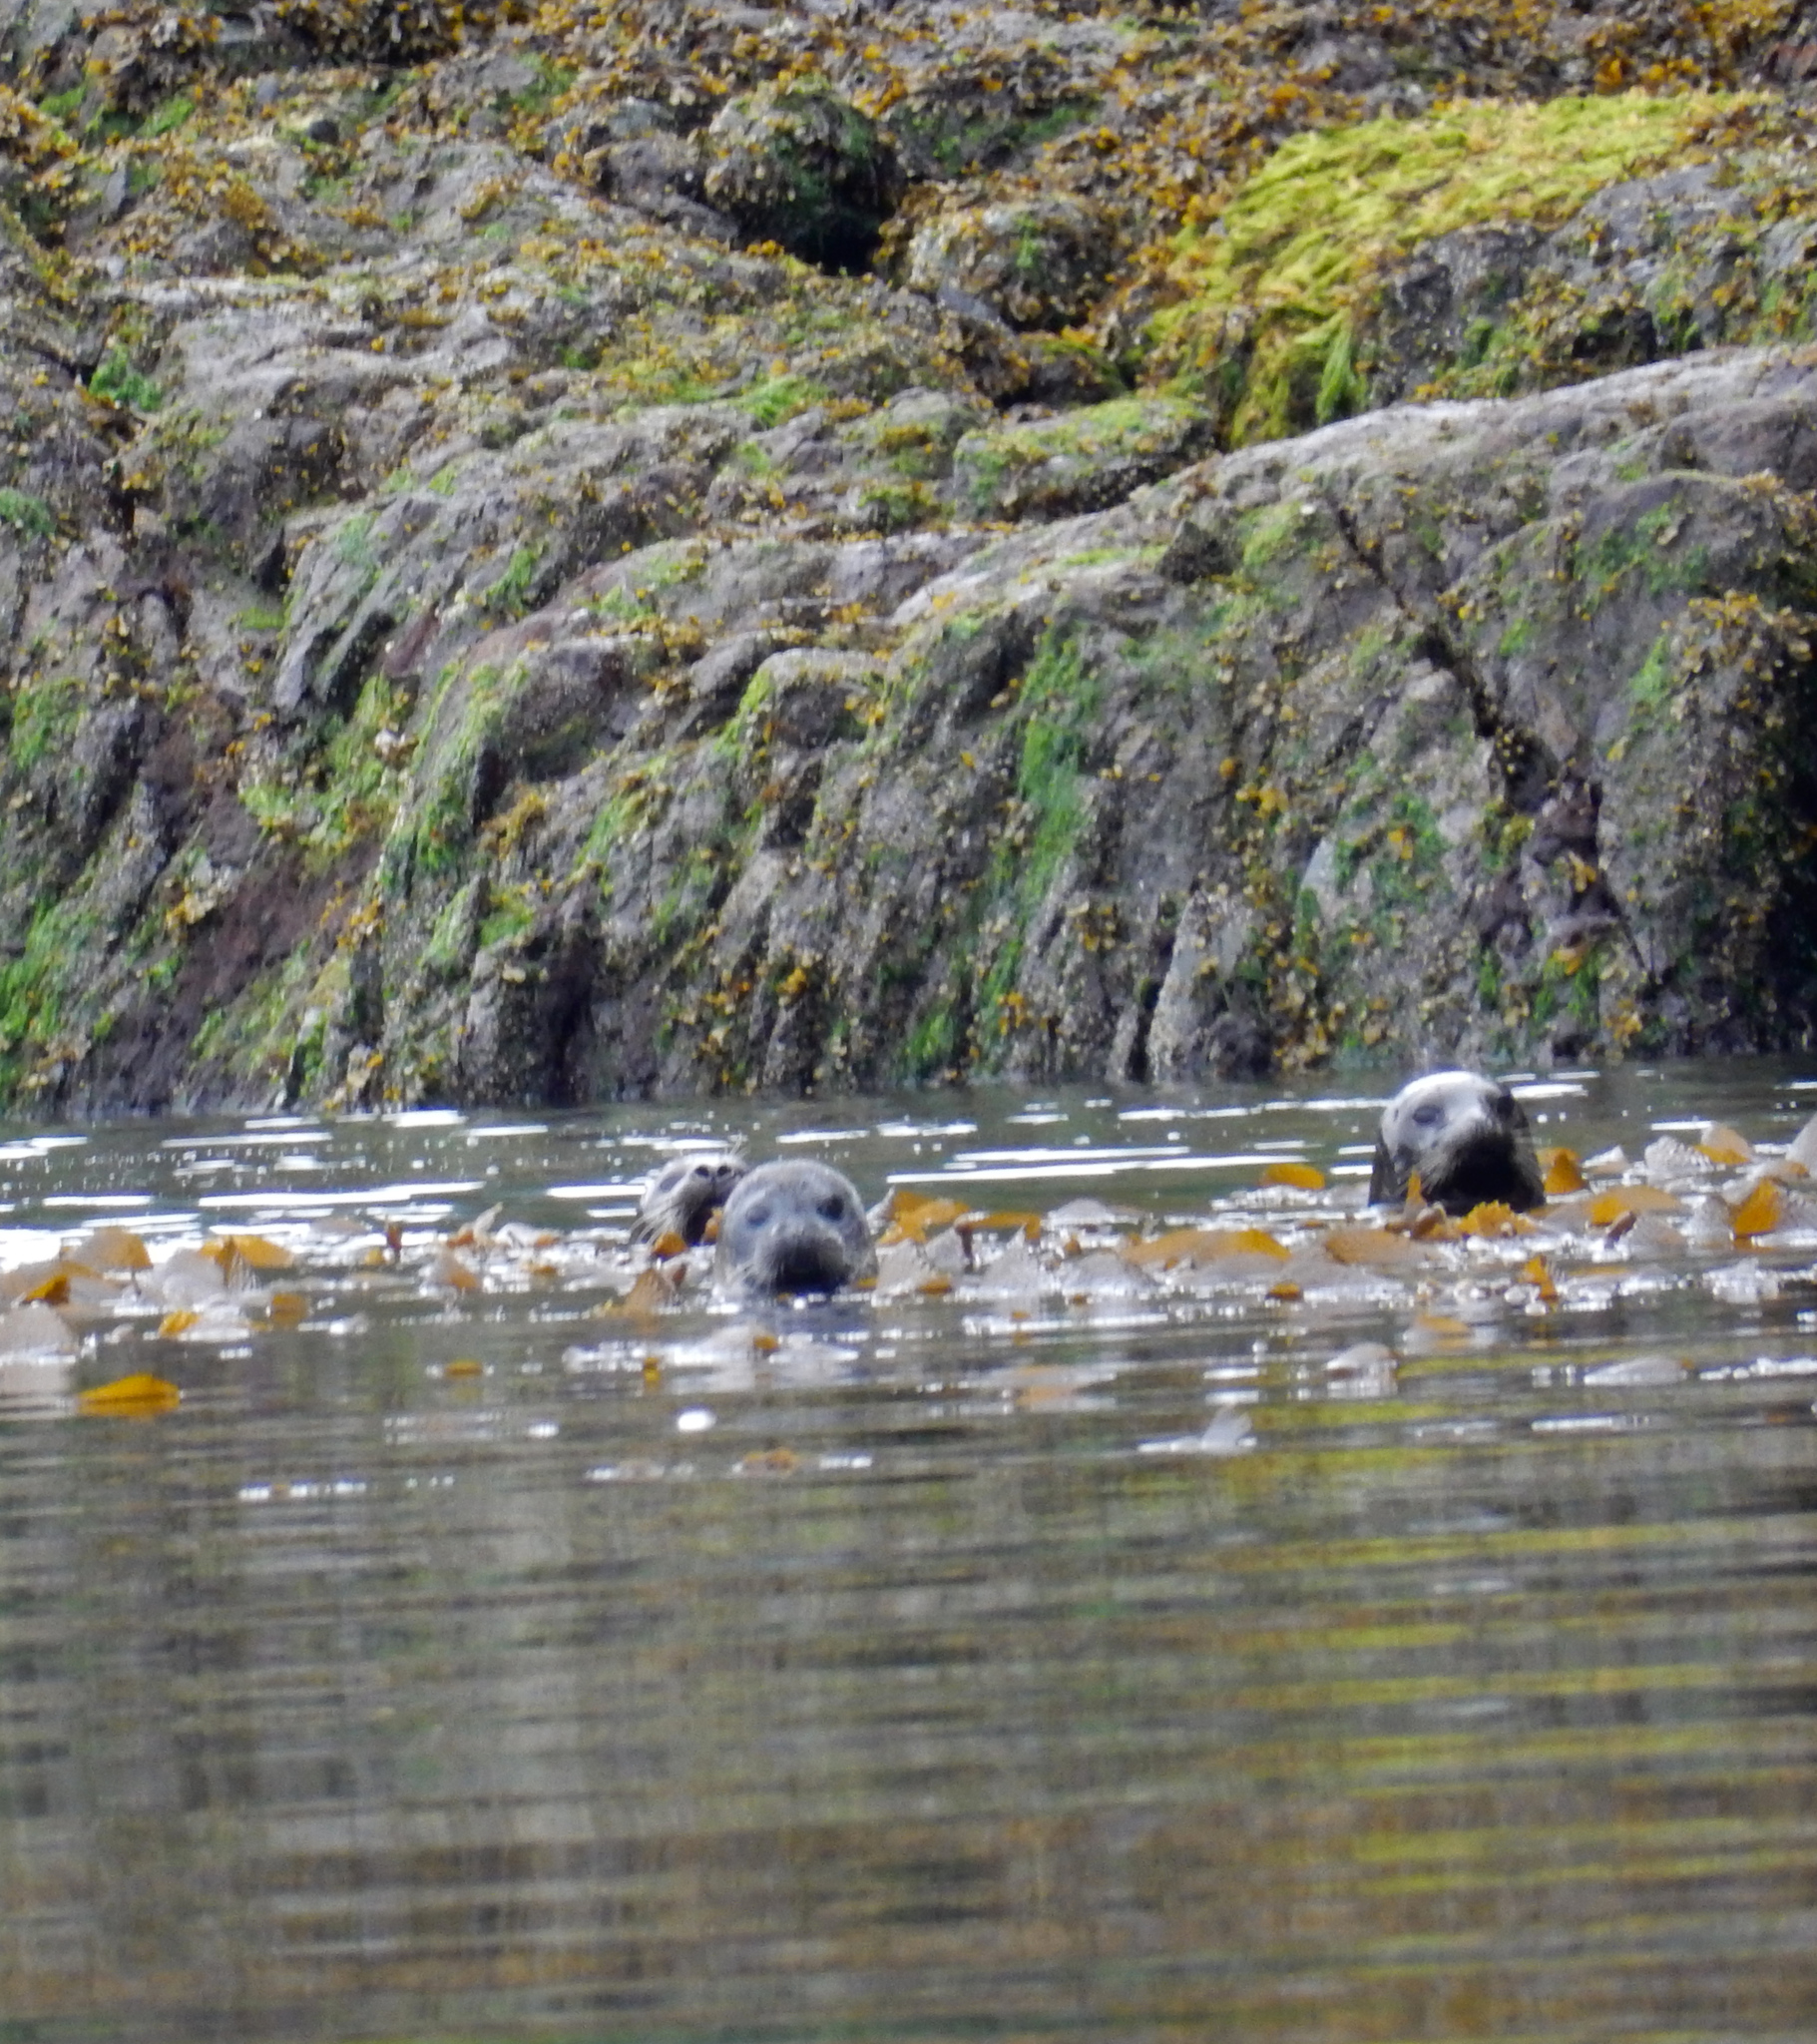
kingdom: Animalia
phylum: Chordata
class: Mammalia
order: Carnivora
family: Phocidae
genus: Phoca
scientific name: Phoca vitulina
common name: Harbor seal
